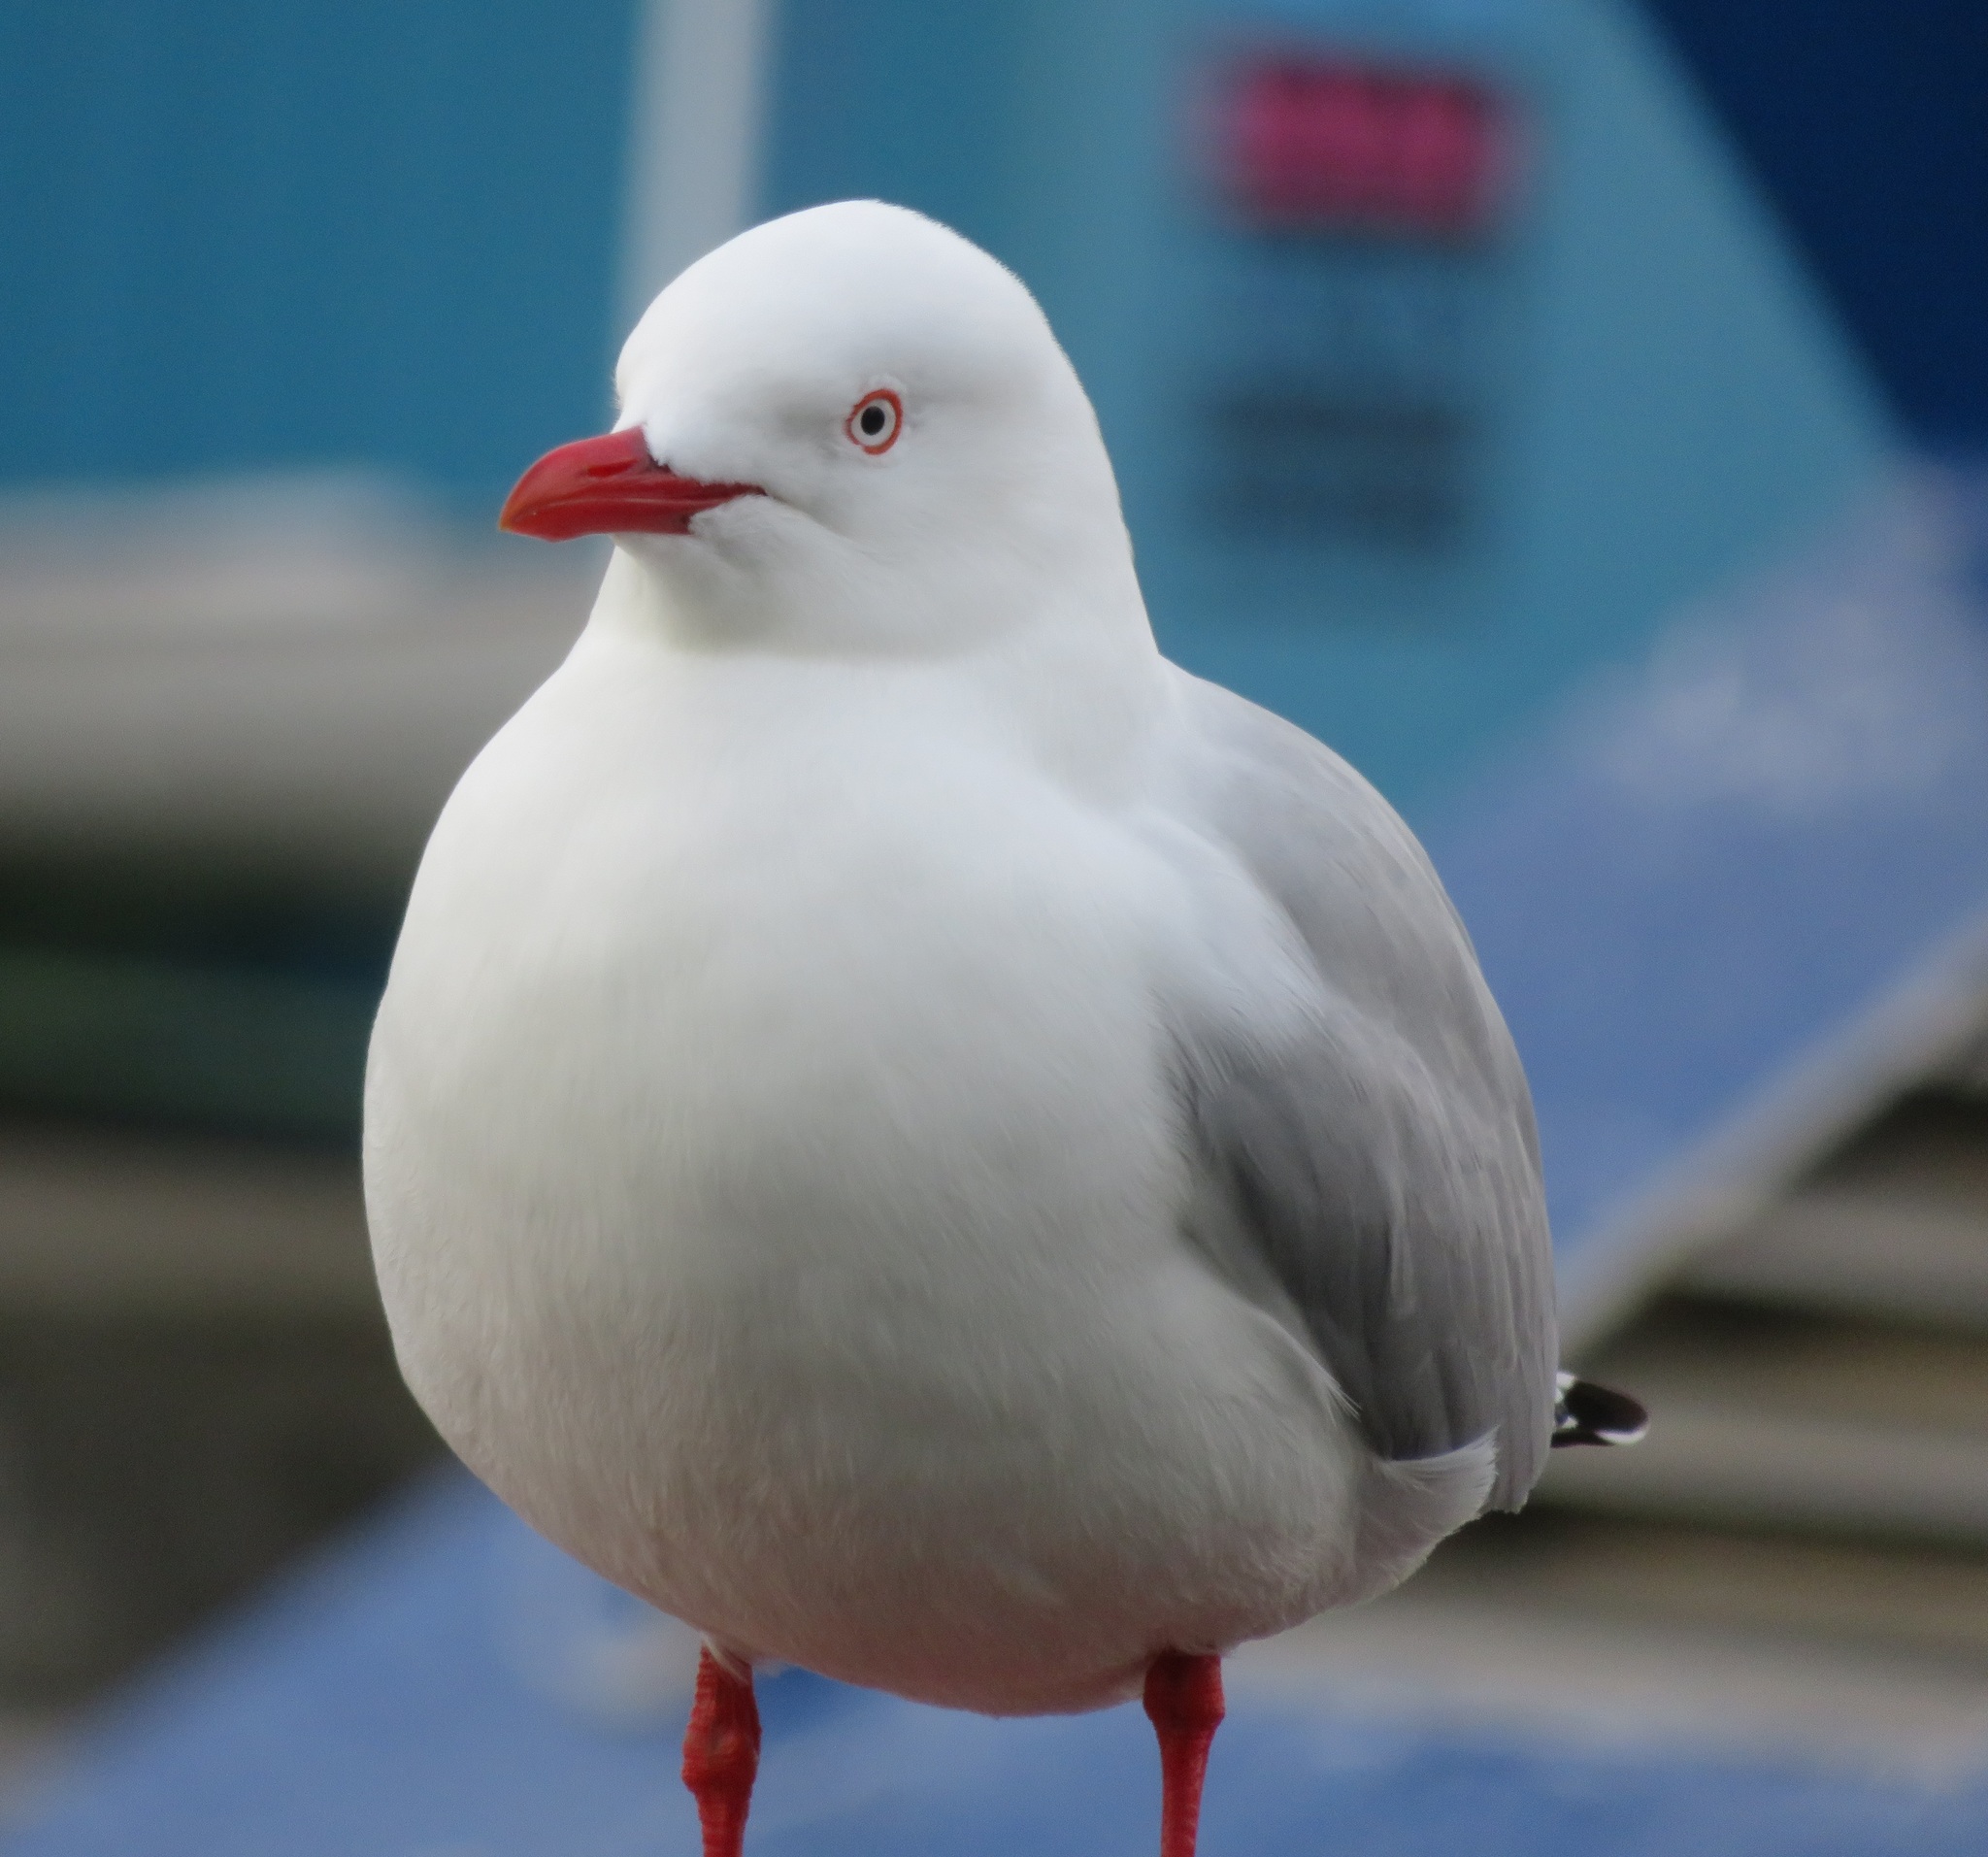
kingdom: Animalia
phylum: Chordata
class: Aves
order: Charadriiformes
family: Laridae
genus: Chroicocephalus
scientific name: Chroicocephalus novaehollandiae
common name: Silver gull
